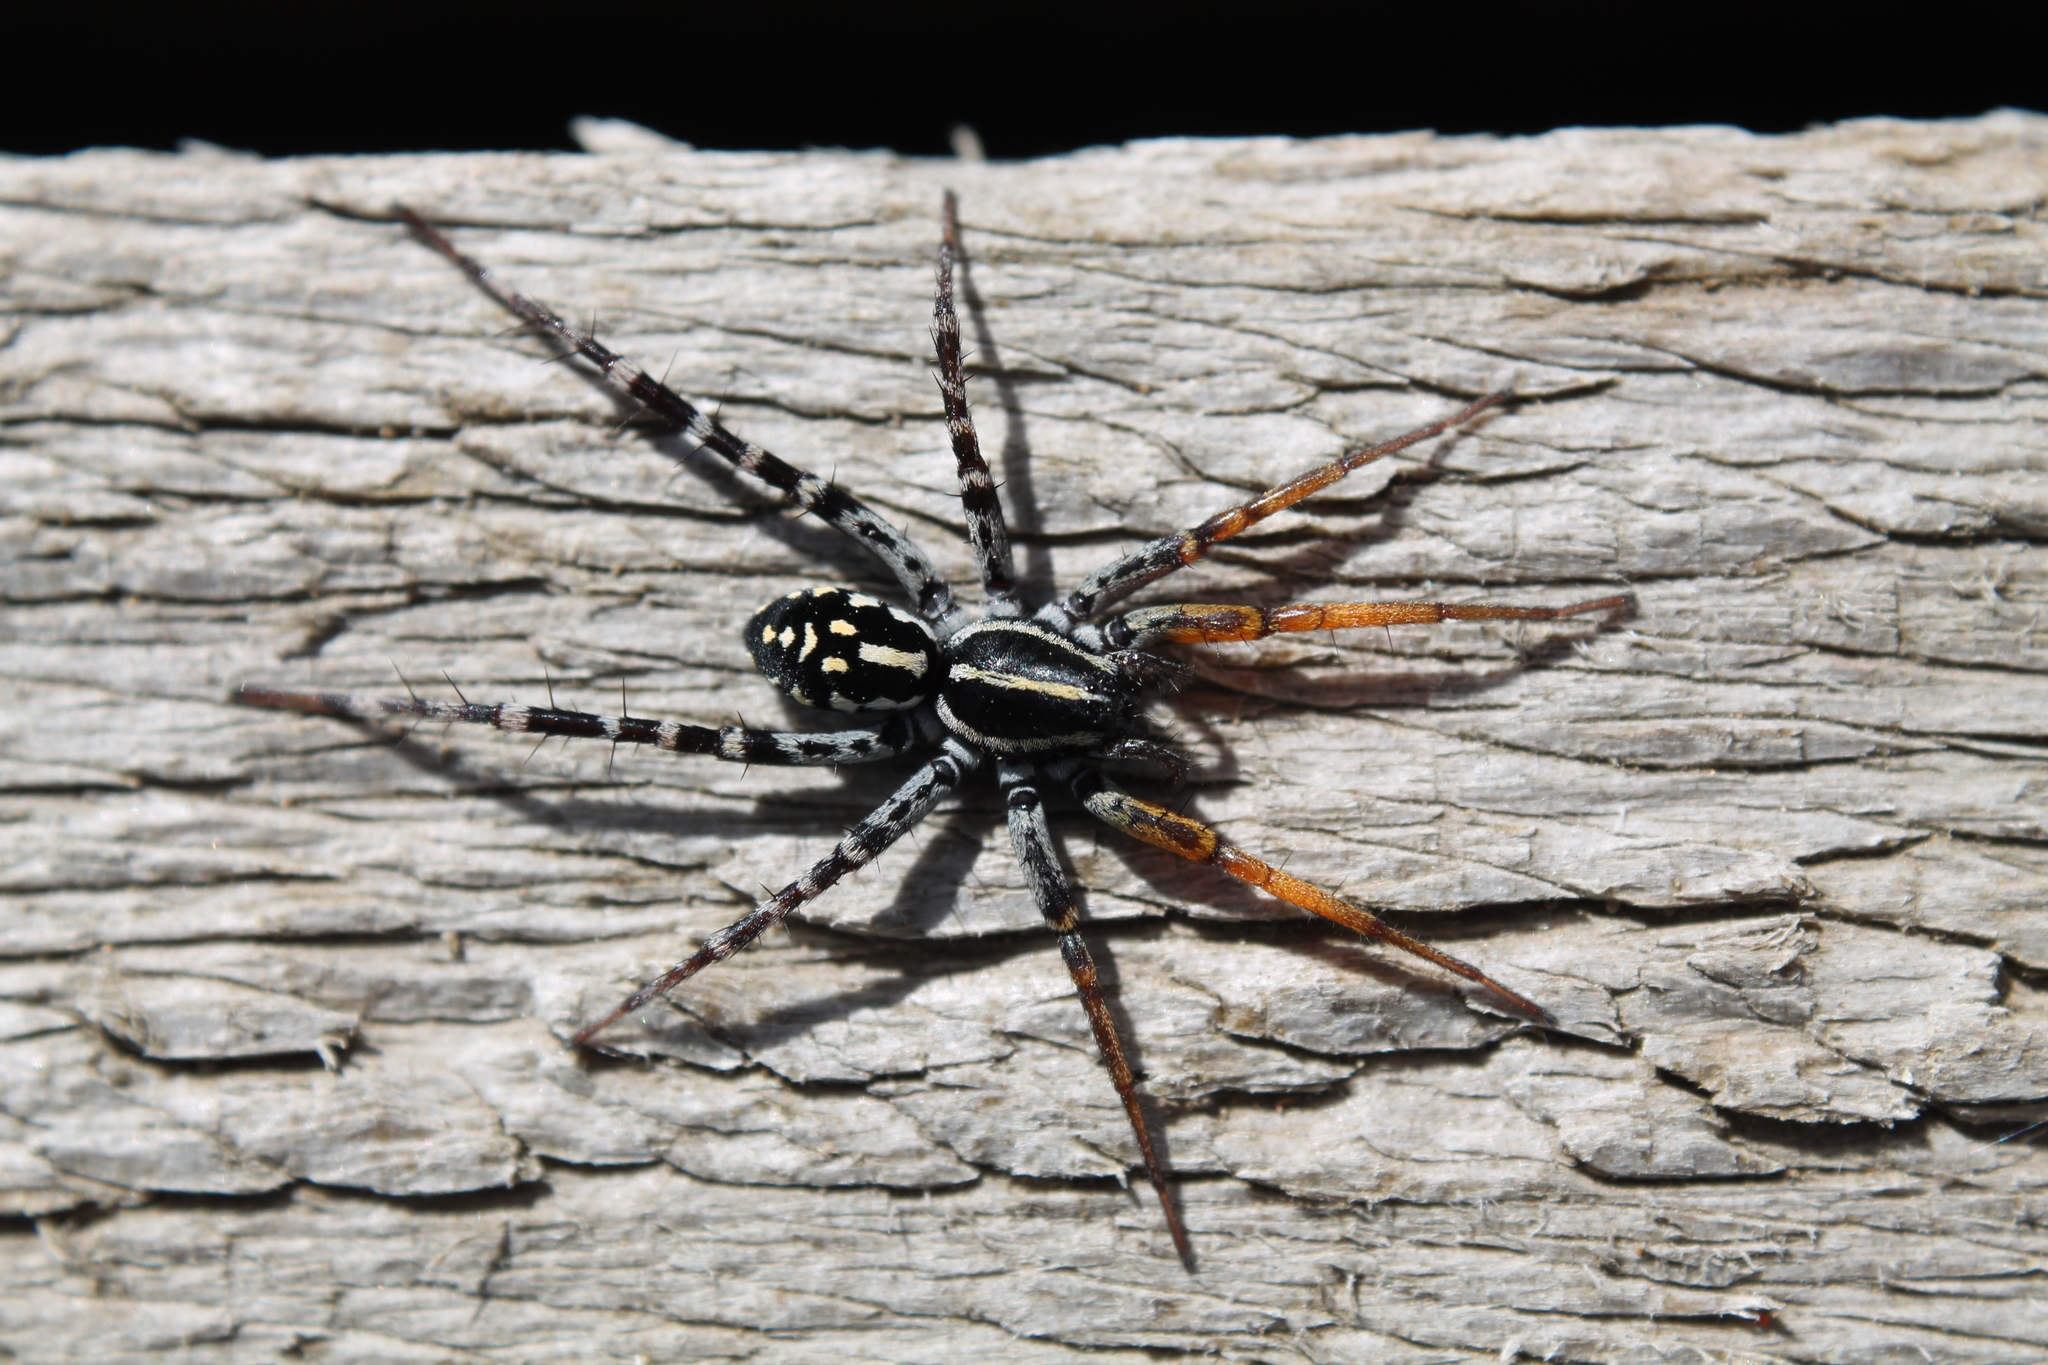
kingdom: Animalia
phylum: Arthropoda
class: Arachnida
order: Araneae
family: Corinnidae
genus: Nyssus
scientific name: Nyssus coloripes
